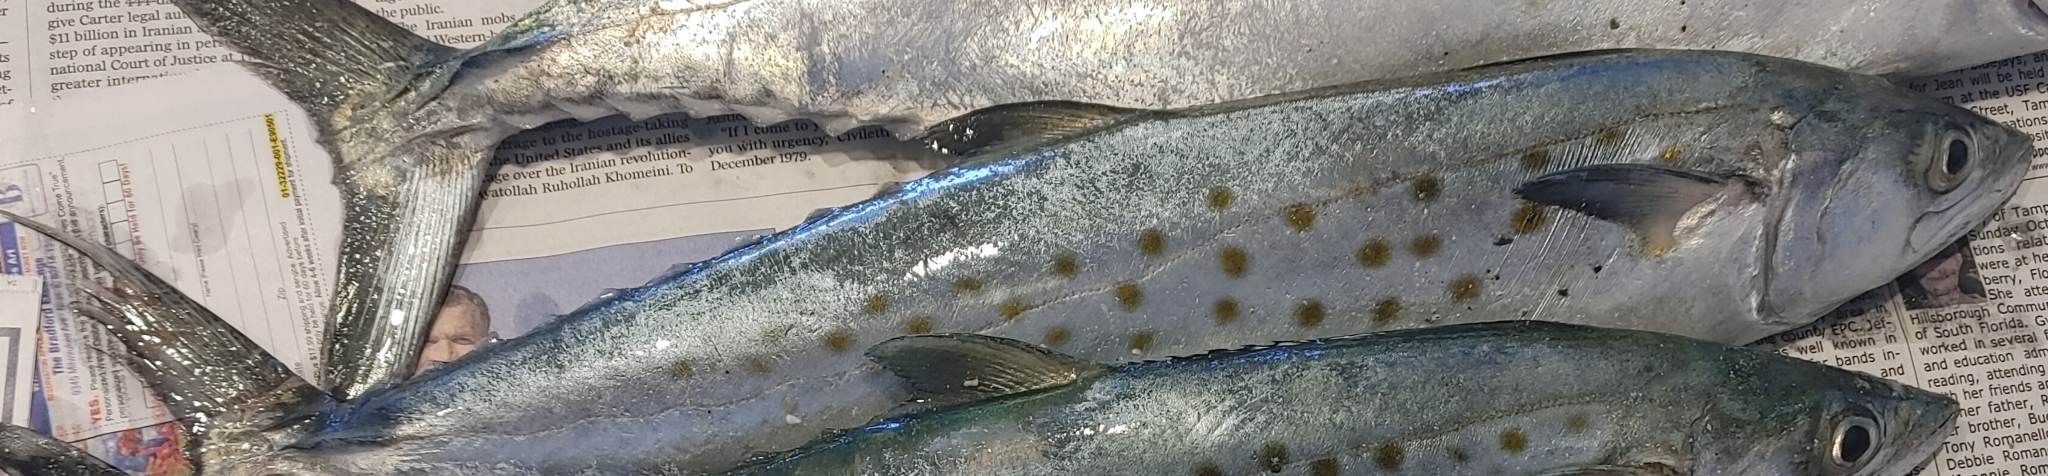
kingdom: Animalia
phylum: Chordata
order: Perciformes
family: Scombridae
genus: Scomberomorus
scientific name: Scomberomorus maculatus
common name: Spanish mackerel
